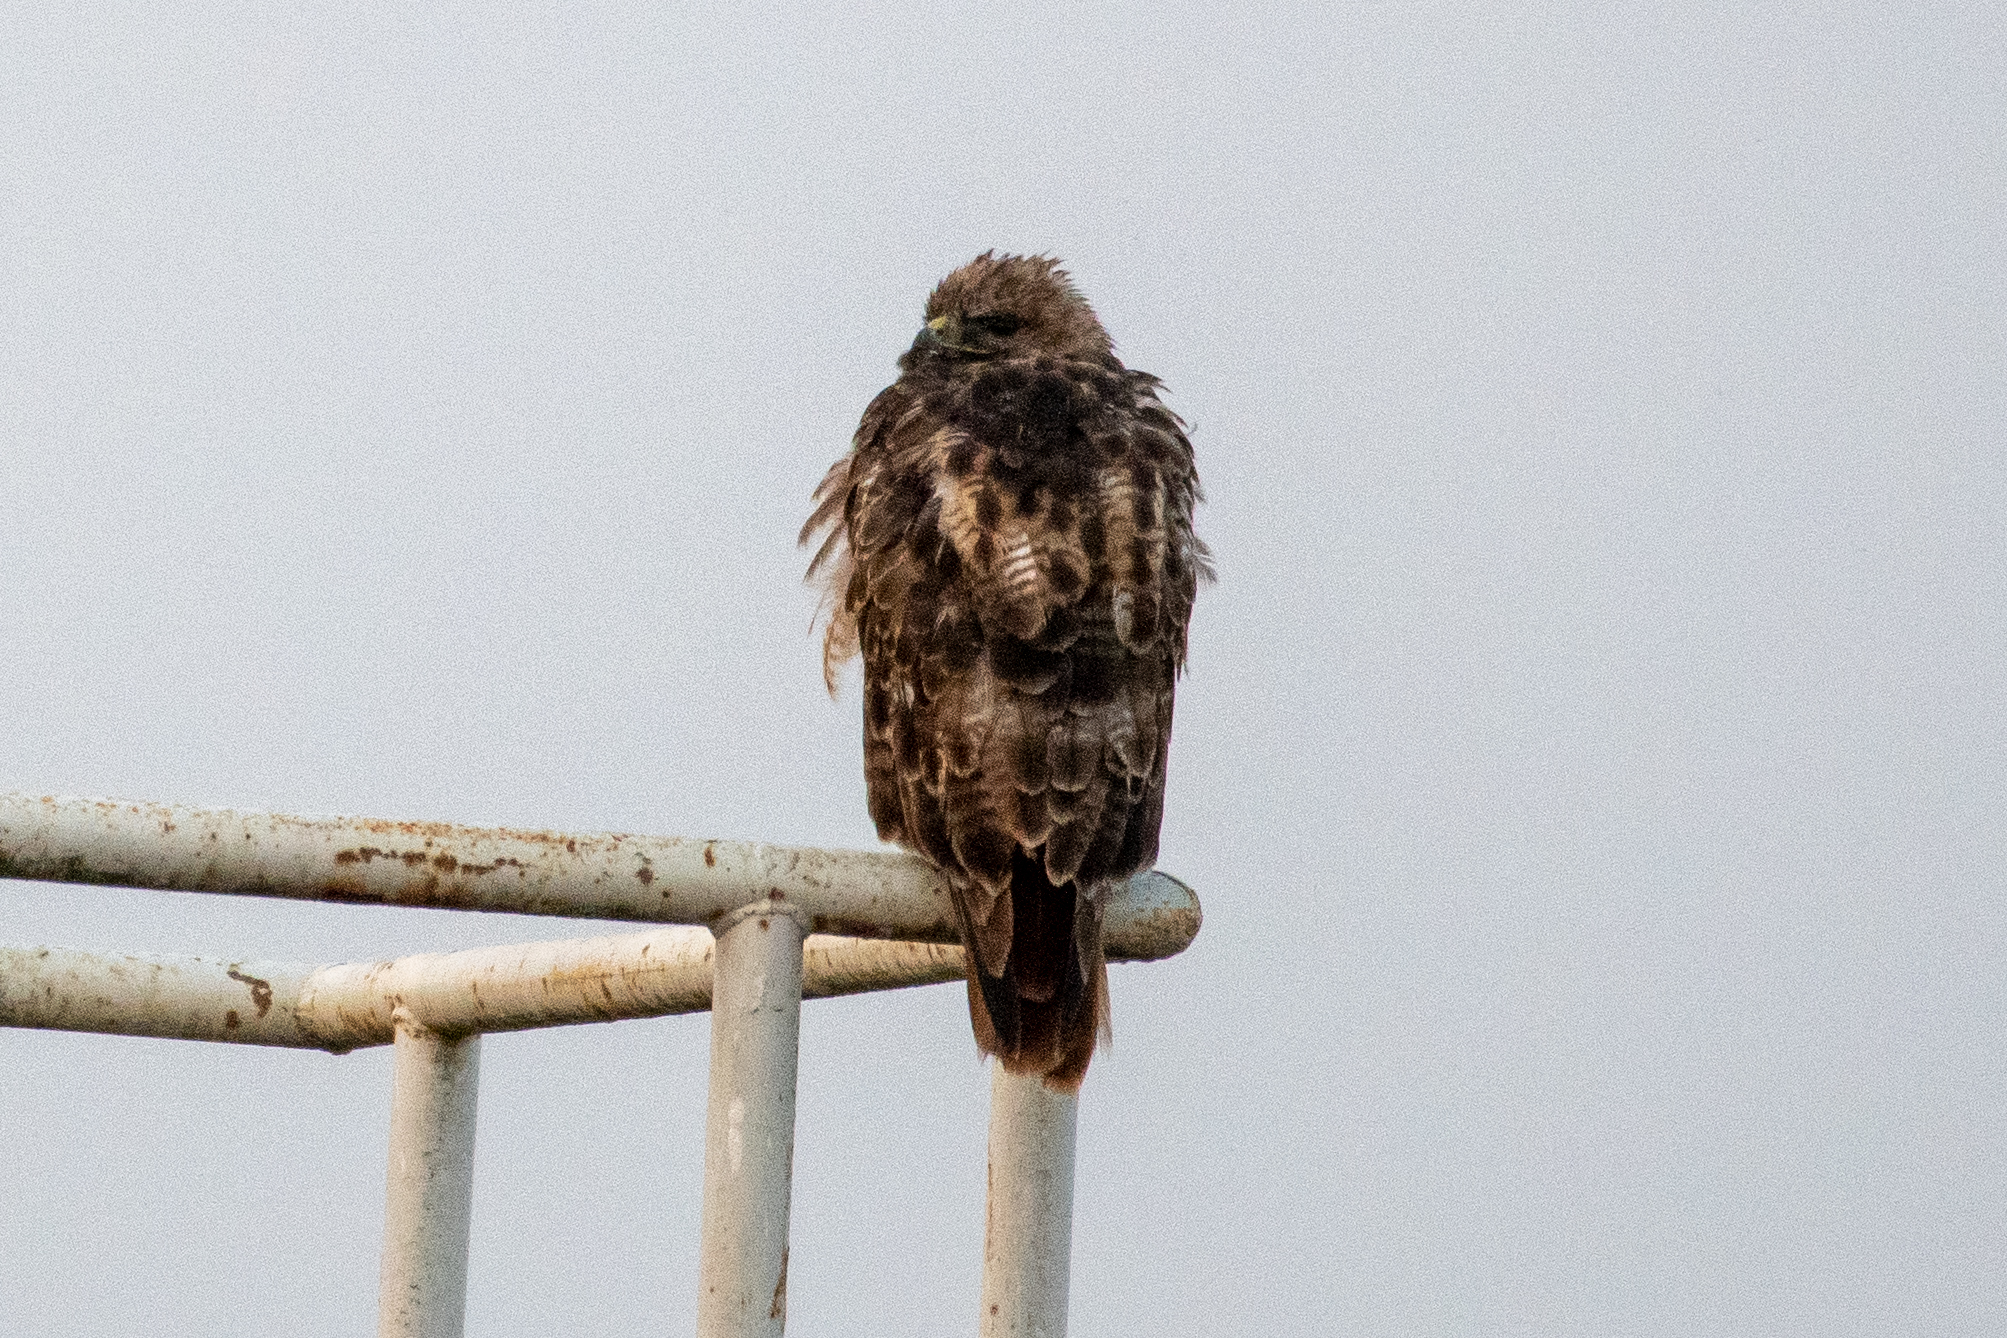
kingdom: Animalia
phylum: Chordata
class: Aves
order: Accipitriformes
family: Accipitridae
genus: Buteo
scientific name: Buteo jamaicensis
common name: Red-tailed hawk
